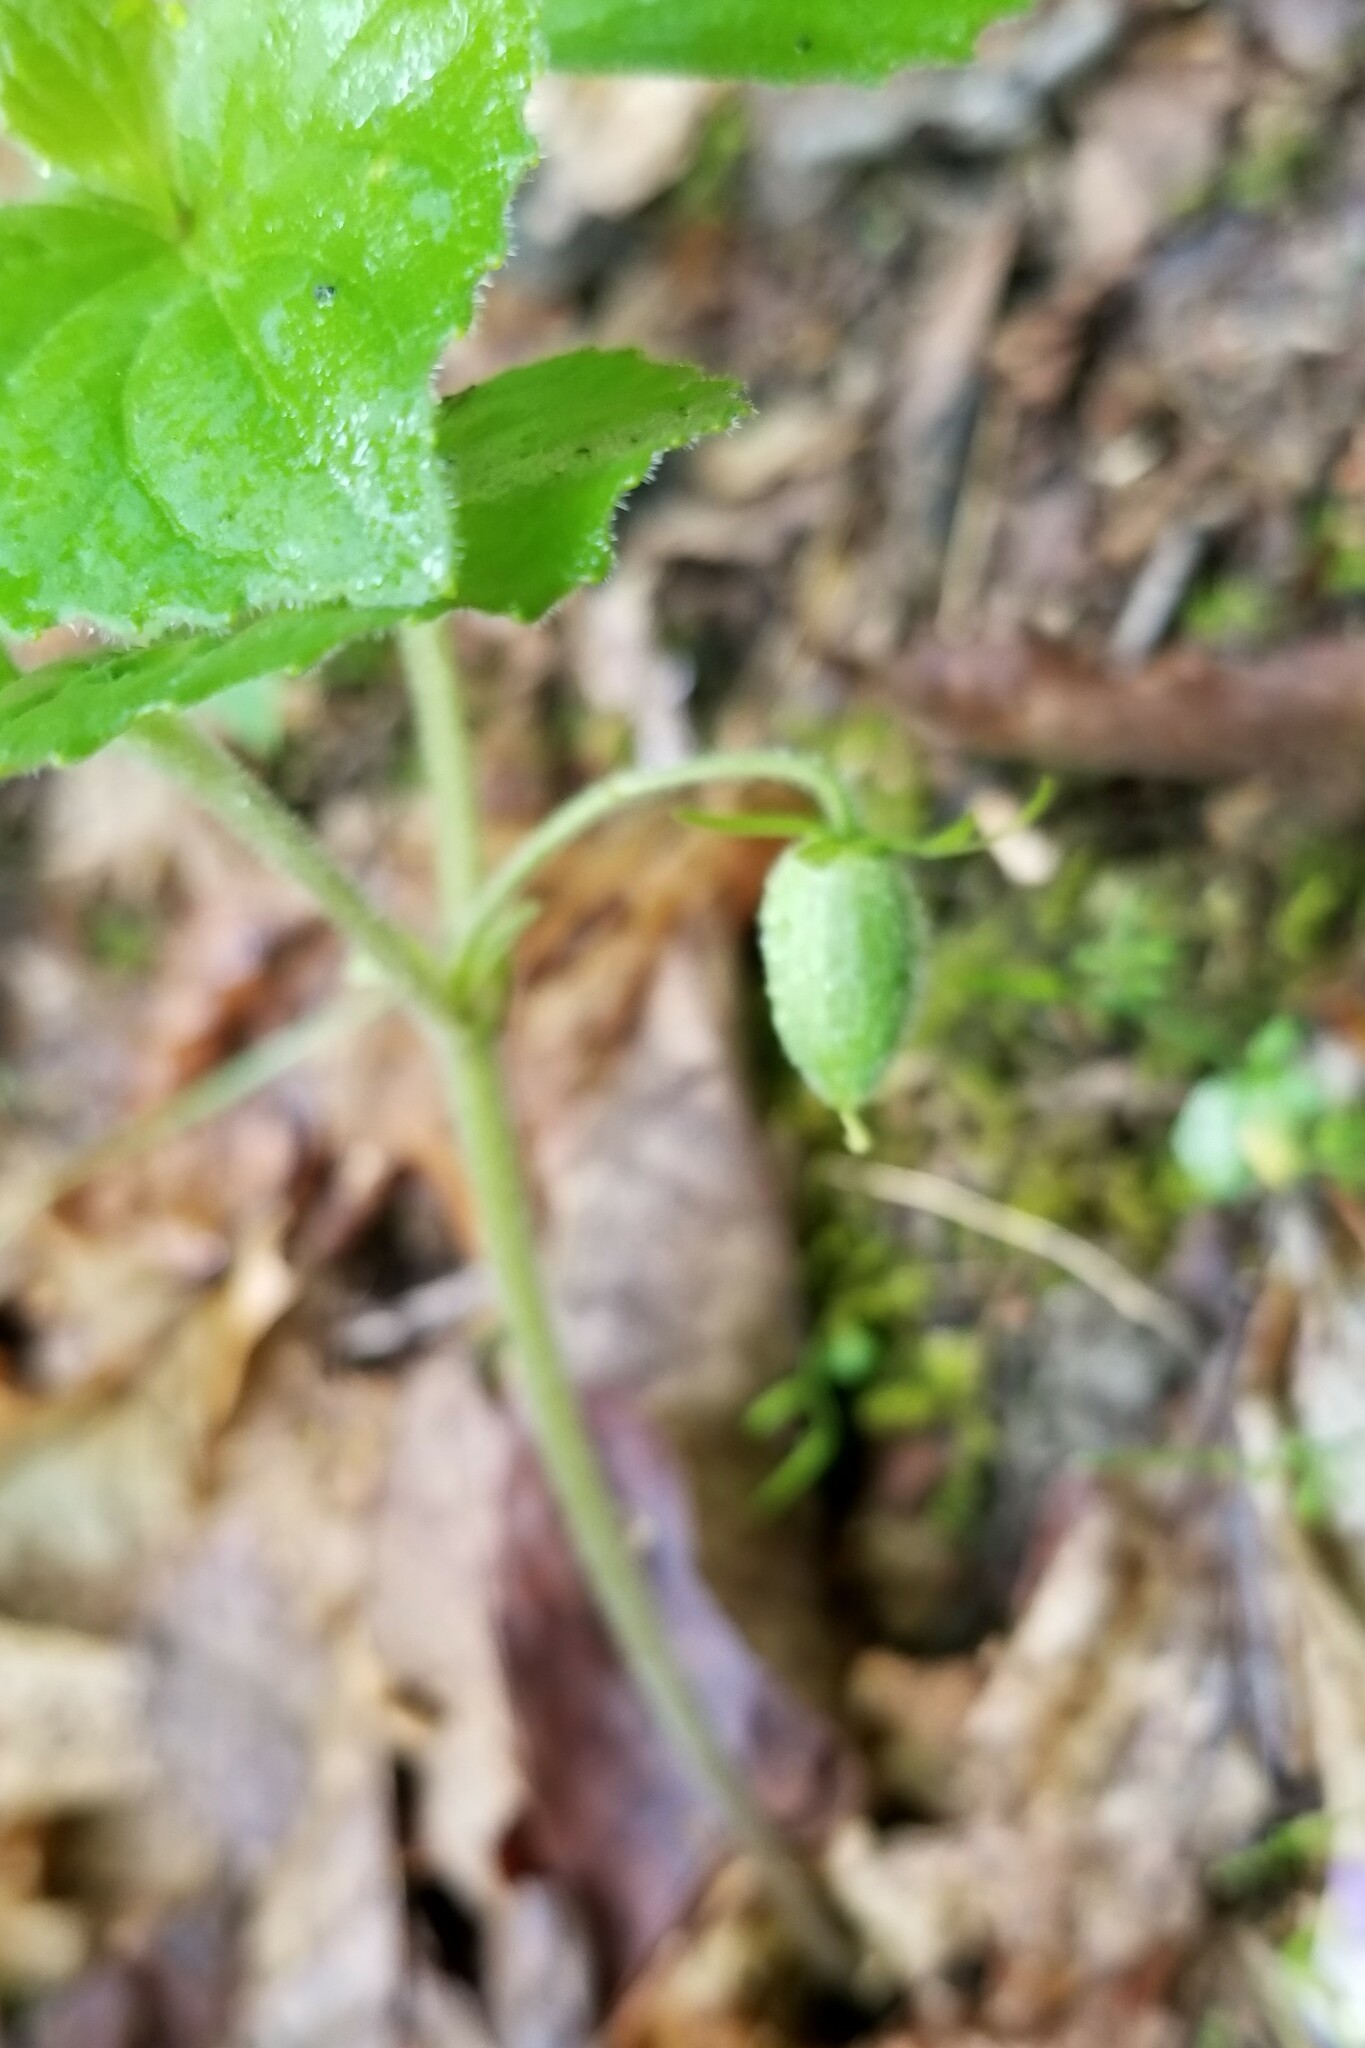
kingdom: Plantae
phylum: Tracheophyta
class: Magnoliopsida
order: Malpighiales
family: Violaceae
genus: Viola
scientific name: Viola pubescens
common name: Yellow forest violet
